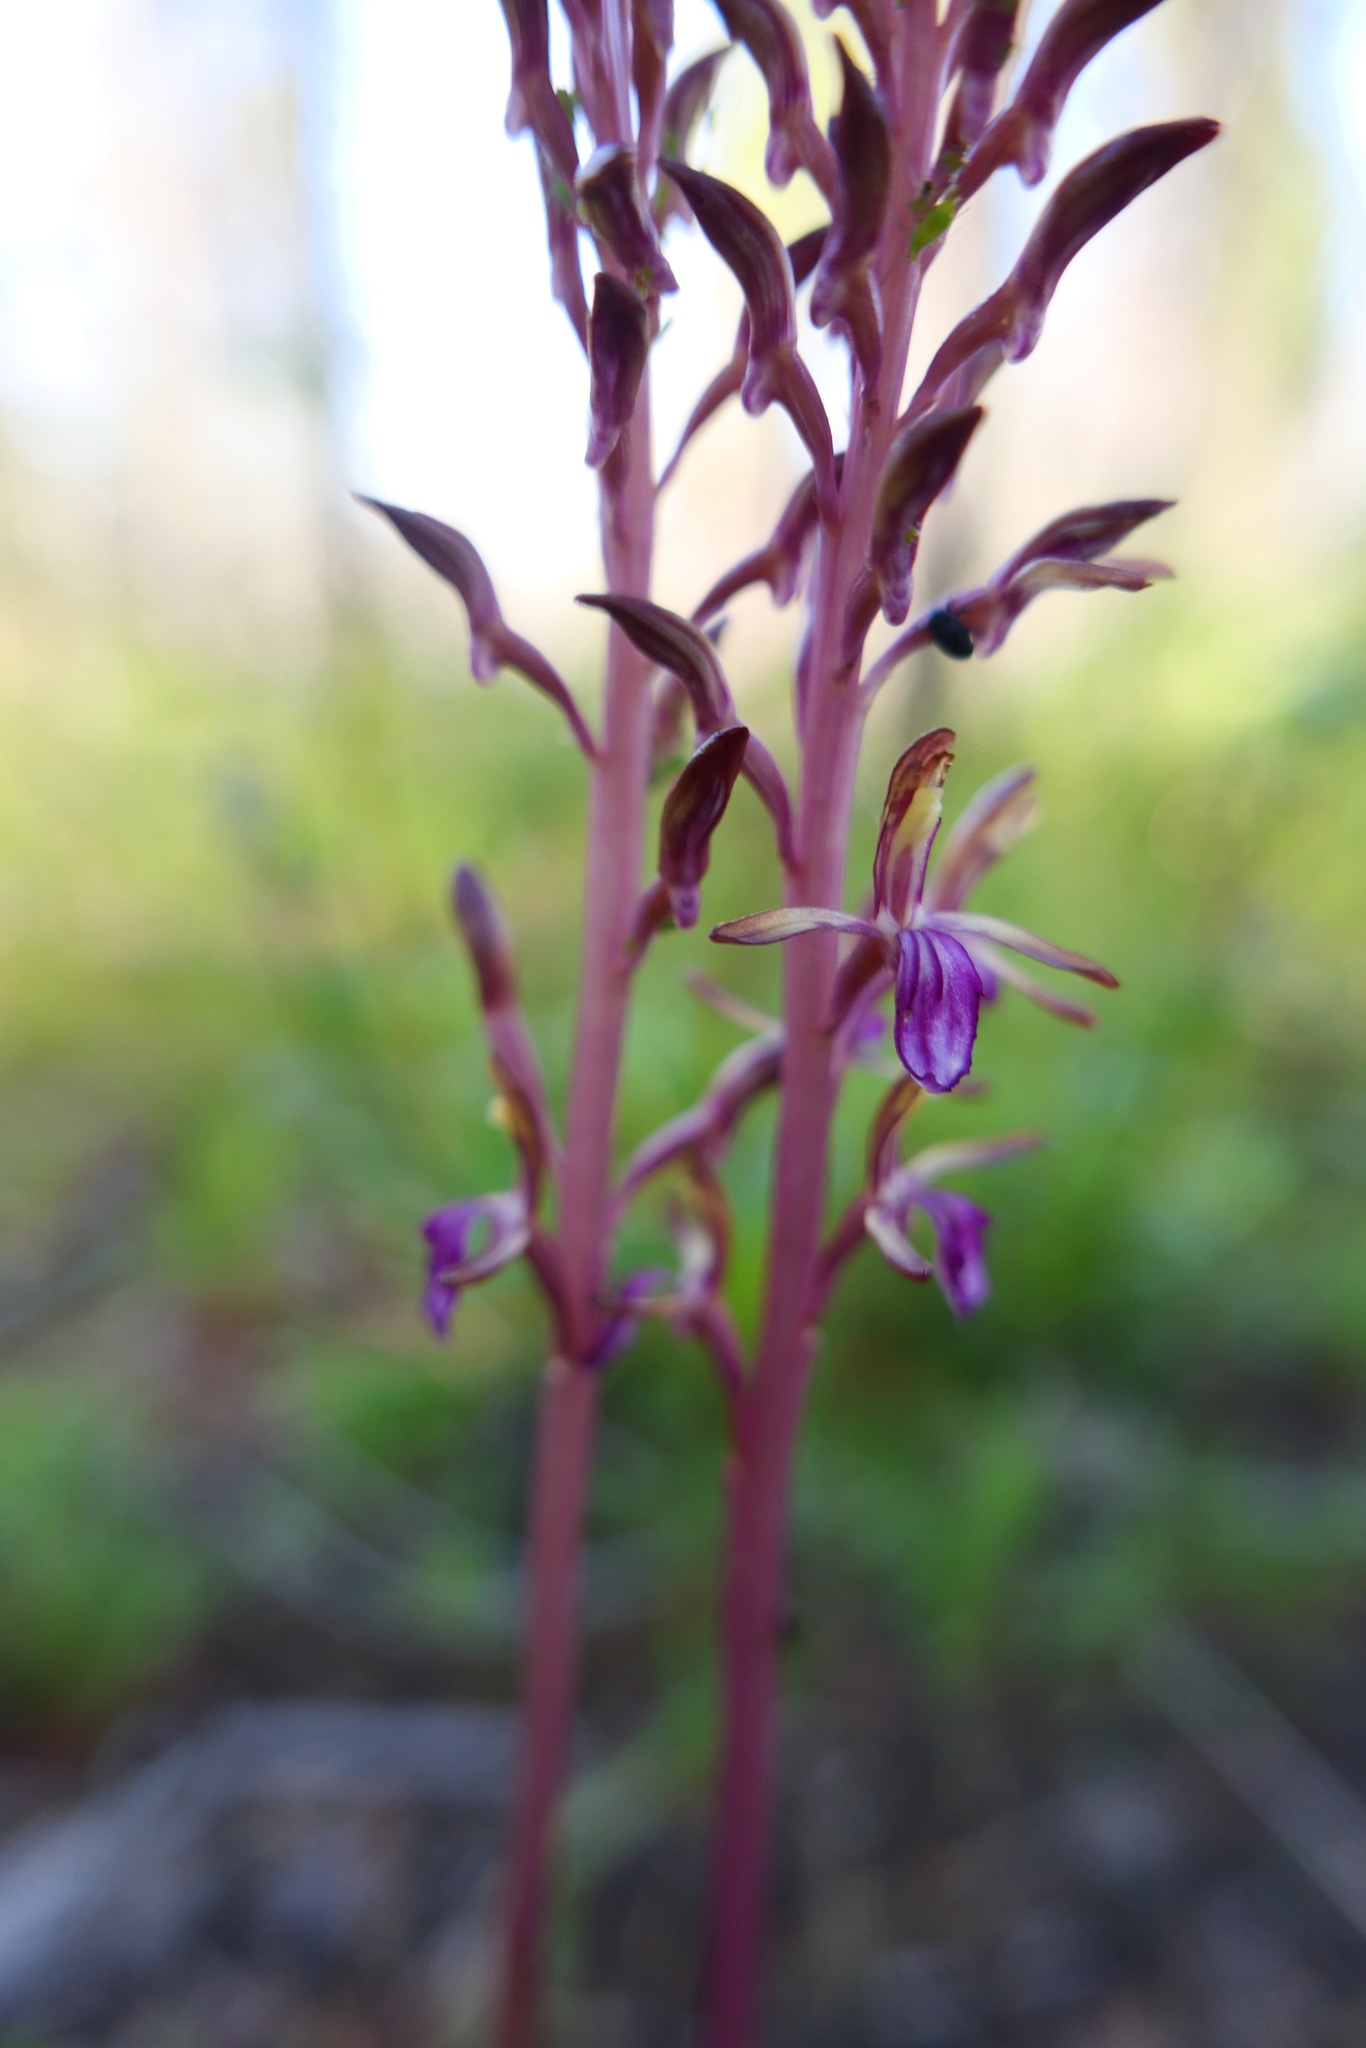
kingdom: Plantae
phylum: Tracheophyta
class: Liliopsida
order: Asparagales
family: Orchidaceae
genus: Corallorhiza
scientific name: Corallorhiza mertensiana
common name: Pacific coralroot
